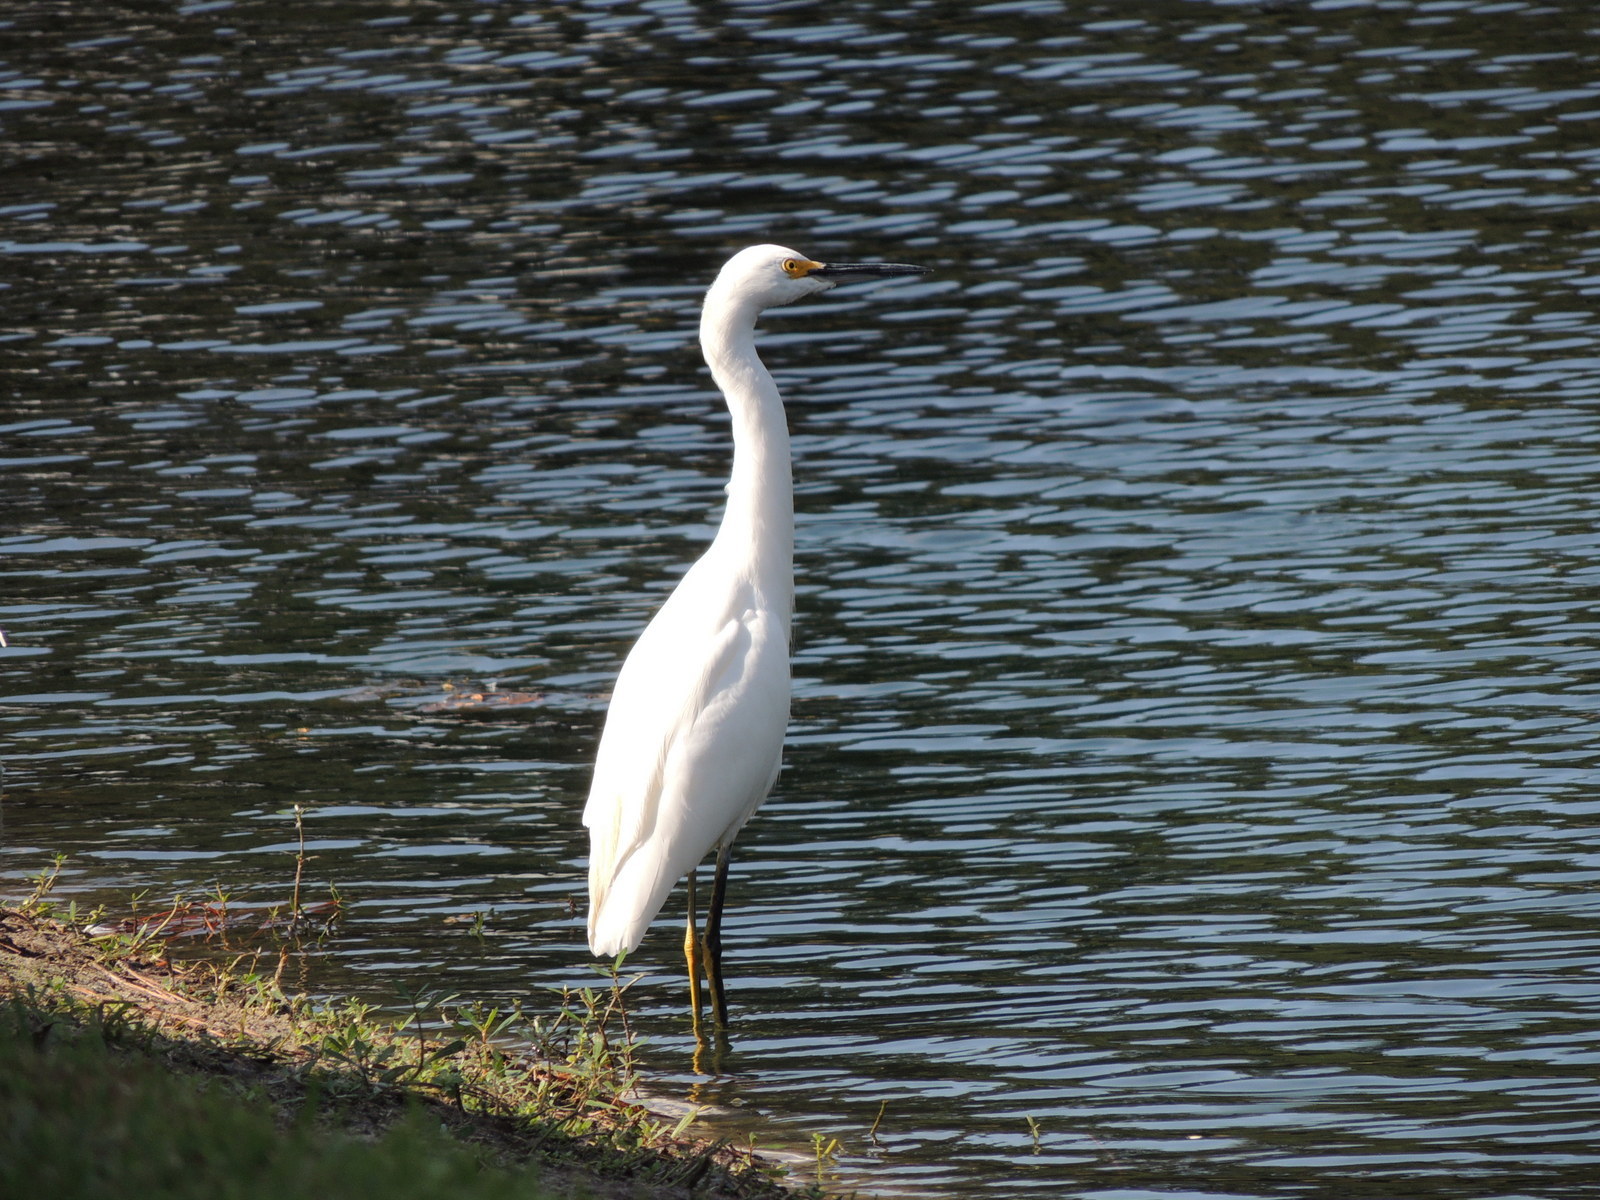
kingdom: Animalia
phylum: Chordata
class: Aves
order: Pelecaniformes
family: Ardeidae
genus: Egretta
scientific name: Egretta thula
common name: Snowy egret
